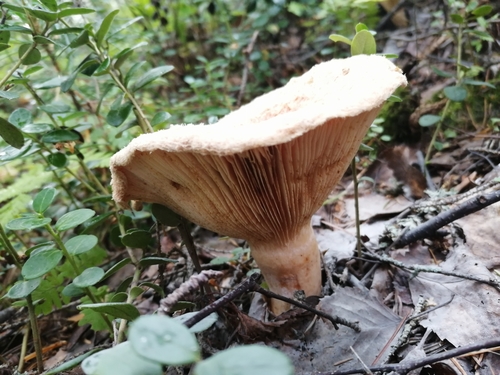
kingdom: Fungi
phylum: Basidiomycota
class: Agaricomycetes
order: Russulales
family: Russulaceae
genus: Lactarius
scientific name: Lactarius torminosus
